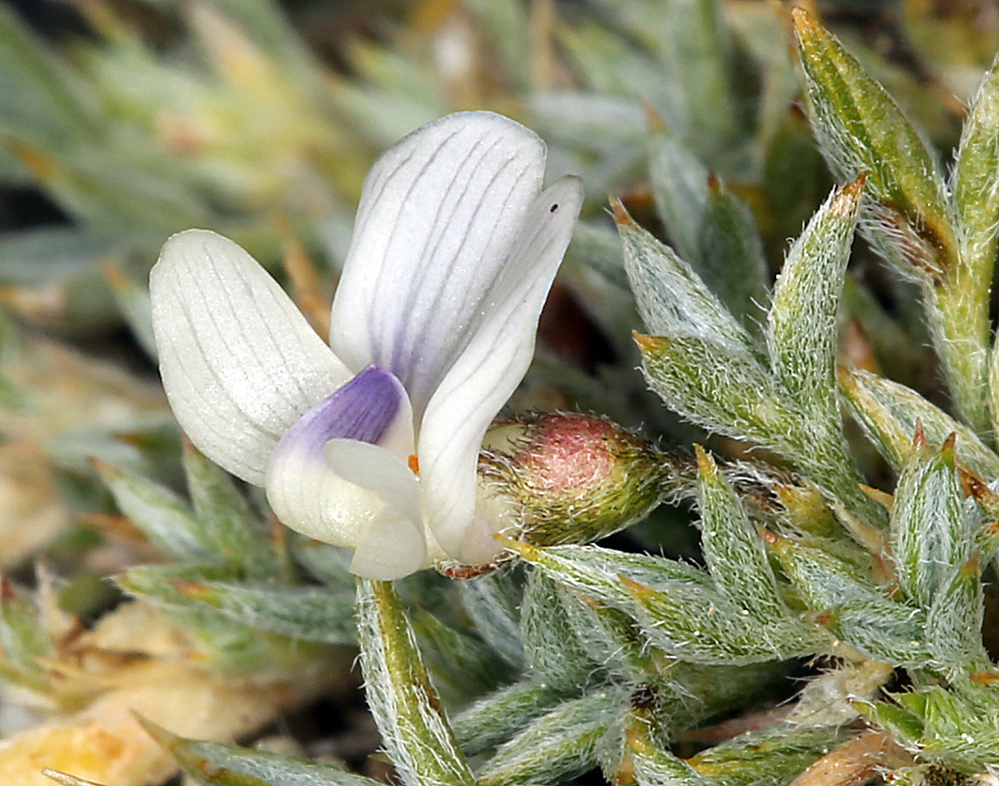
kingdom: Plantae
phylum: Tracheophyta
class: Magnoliopsida
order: Fabales
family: Fabaceae
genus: Astragalus
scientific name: Astragalus kentrophyta
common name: Prickly milk-vetch
